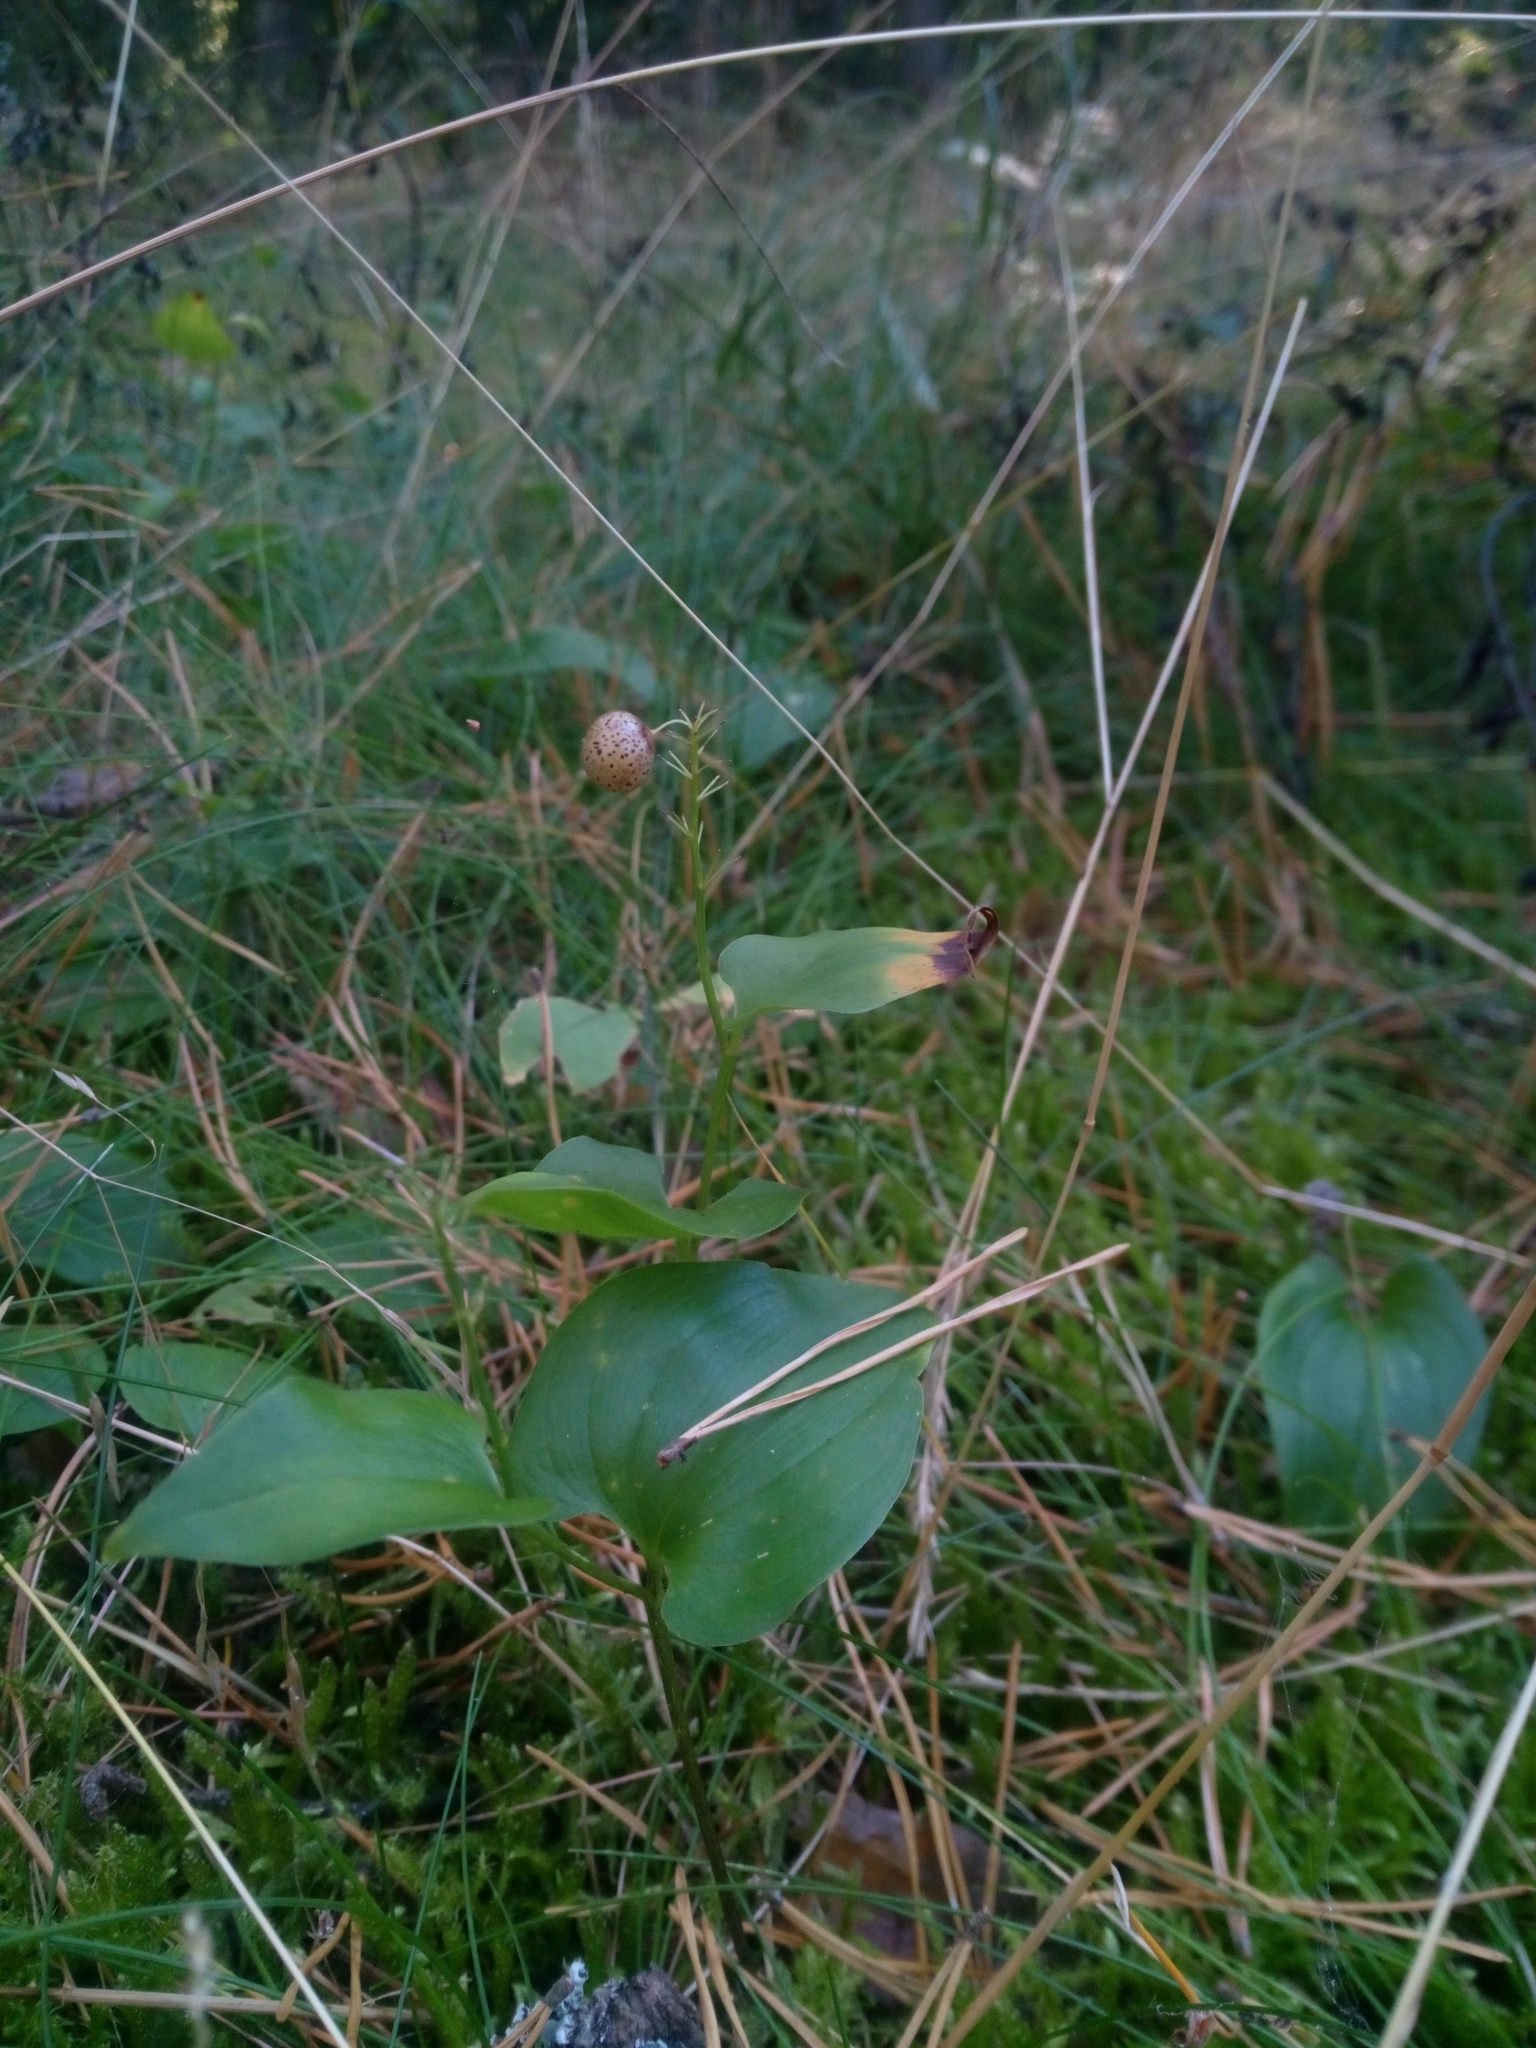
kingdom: Plantae
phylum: Tracheophyta
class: Liliopsida
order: Asparagales
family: Asparagaceae
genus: Maianthemum
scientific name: Maianthemum bifolium
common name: May lily
